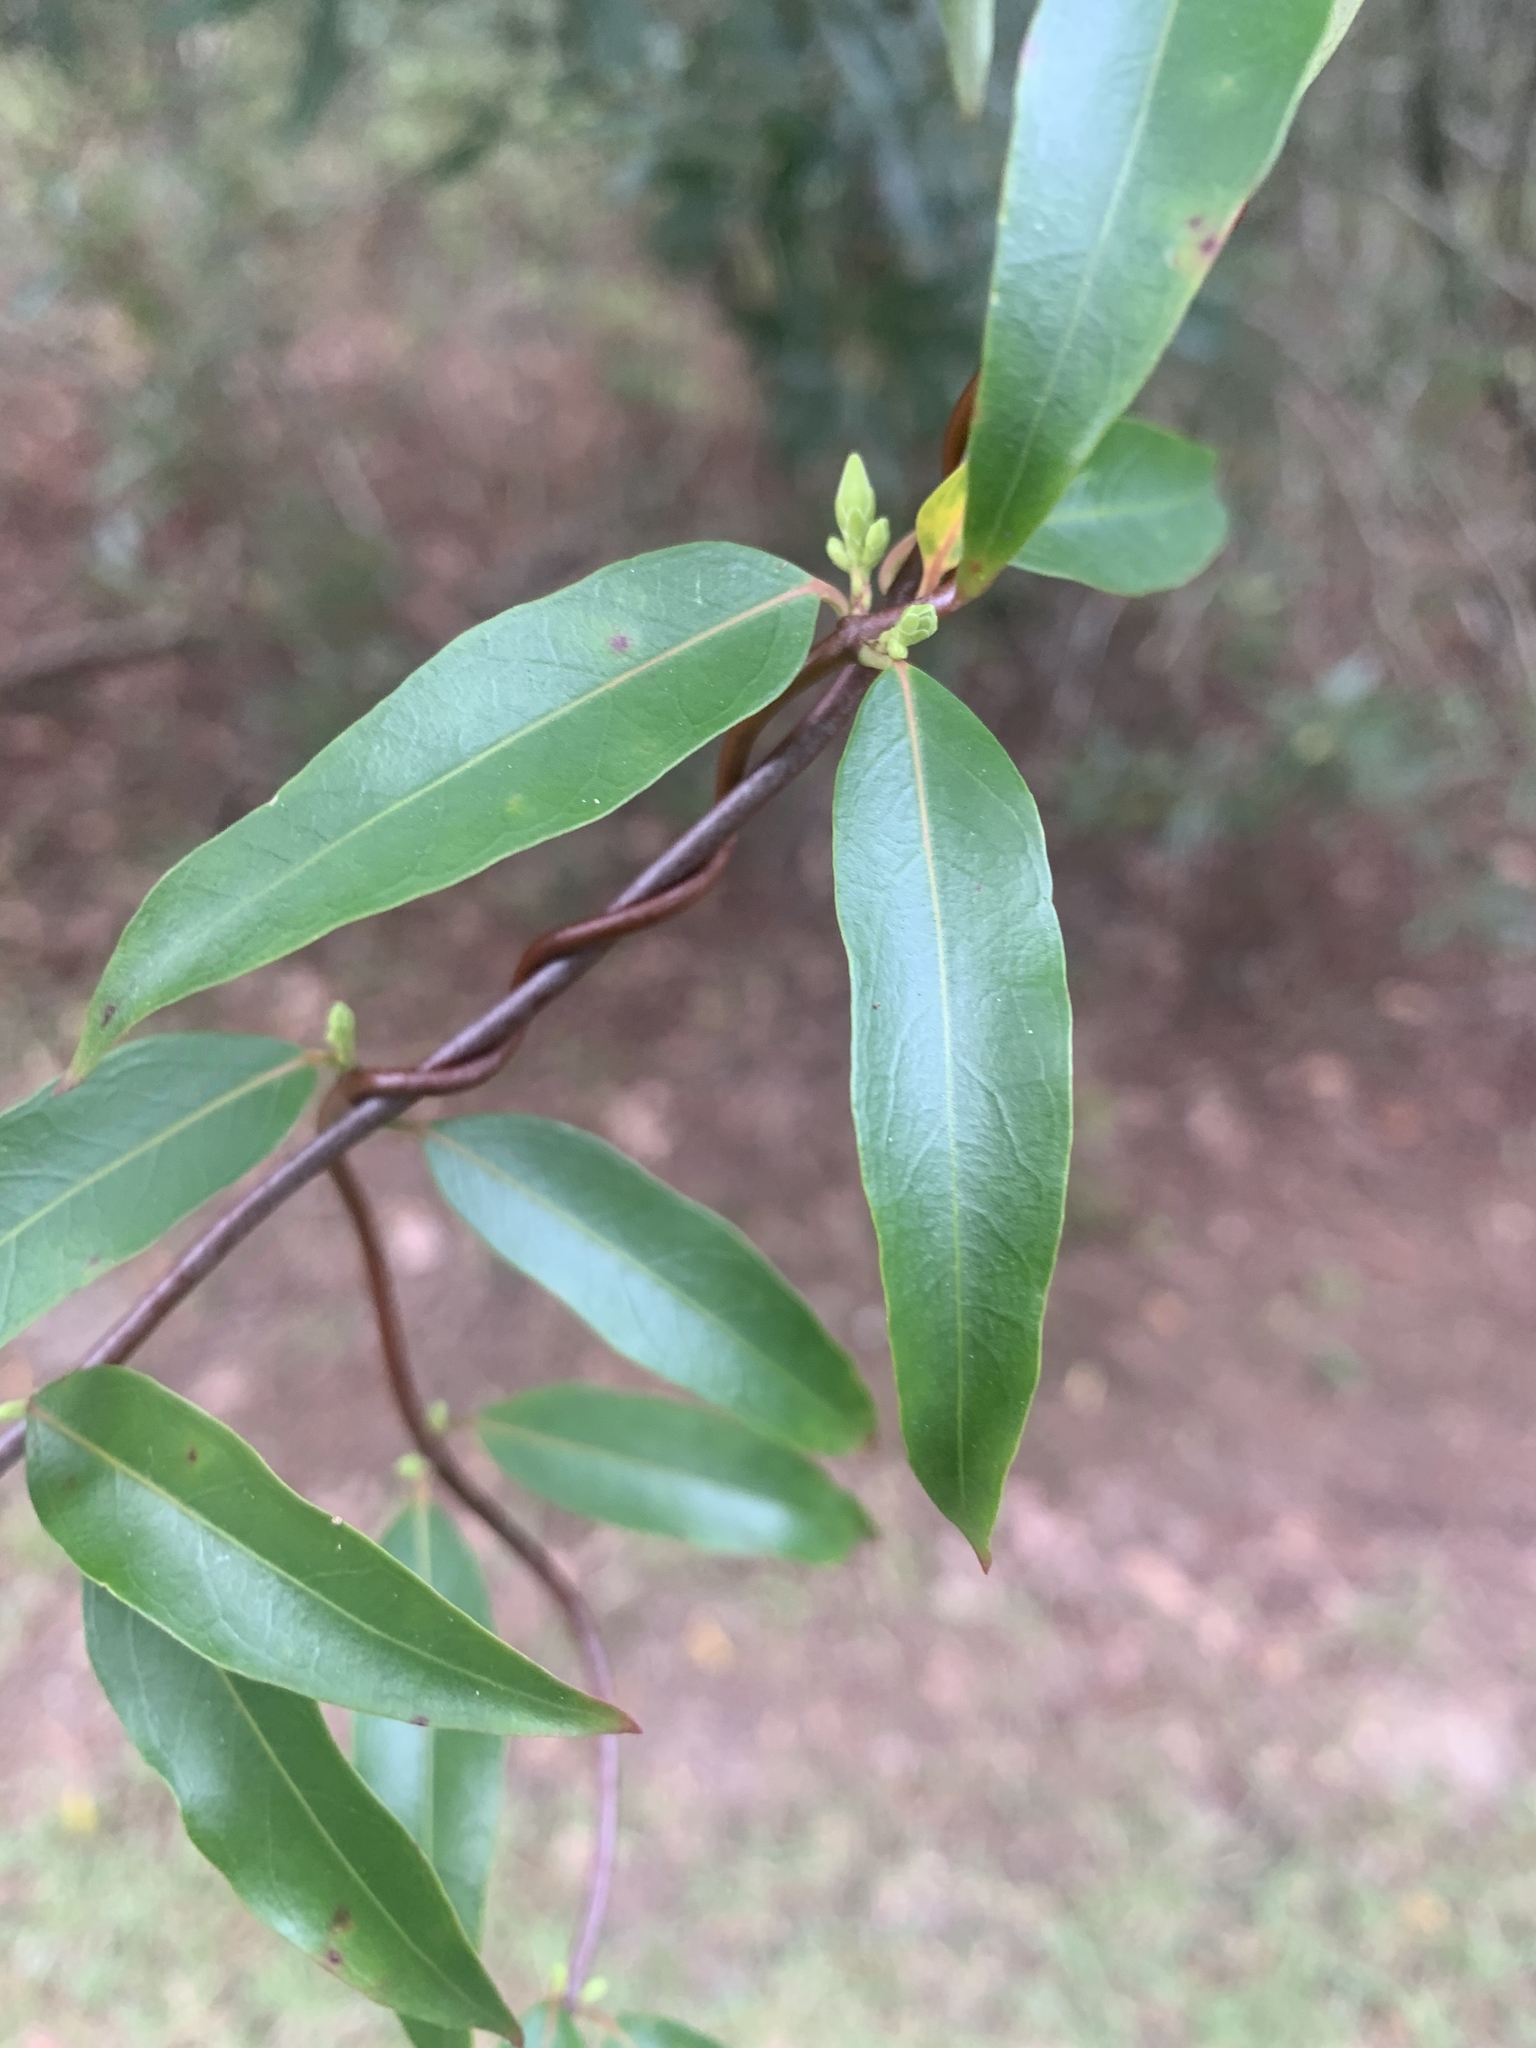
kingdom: Plantae
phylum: Tracheophyta
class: Magnoliopsida
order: Gentianales
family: Gelsemiaceae
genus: Gelsemium
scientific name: Gelsemium sempervirens
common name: Carolina-jasmine
